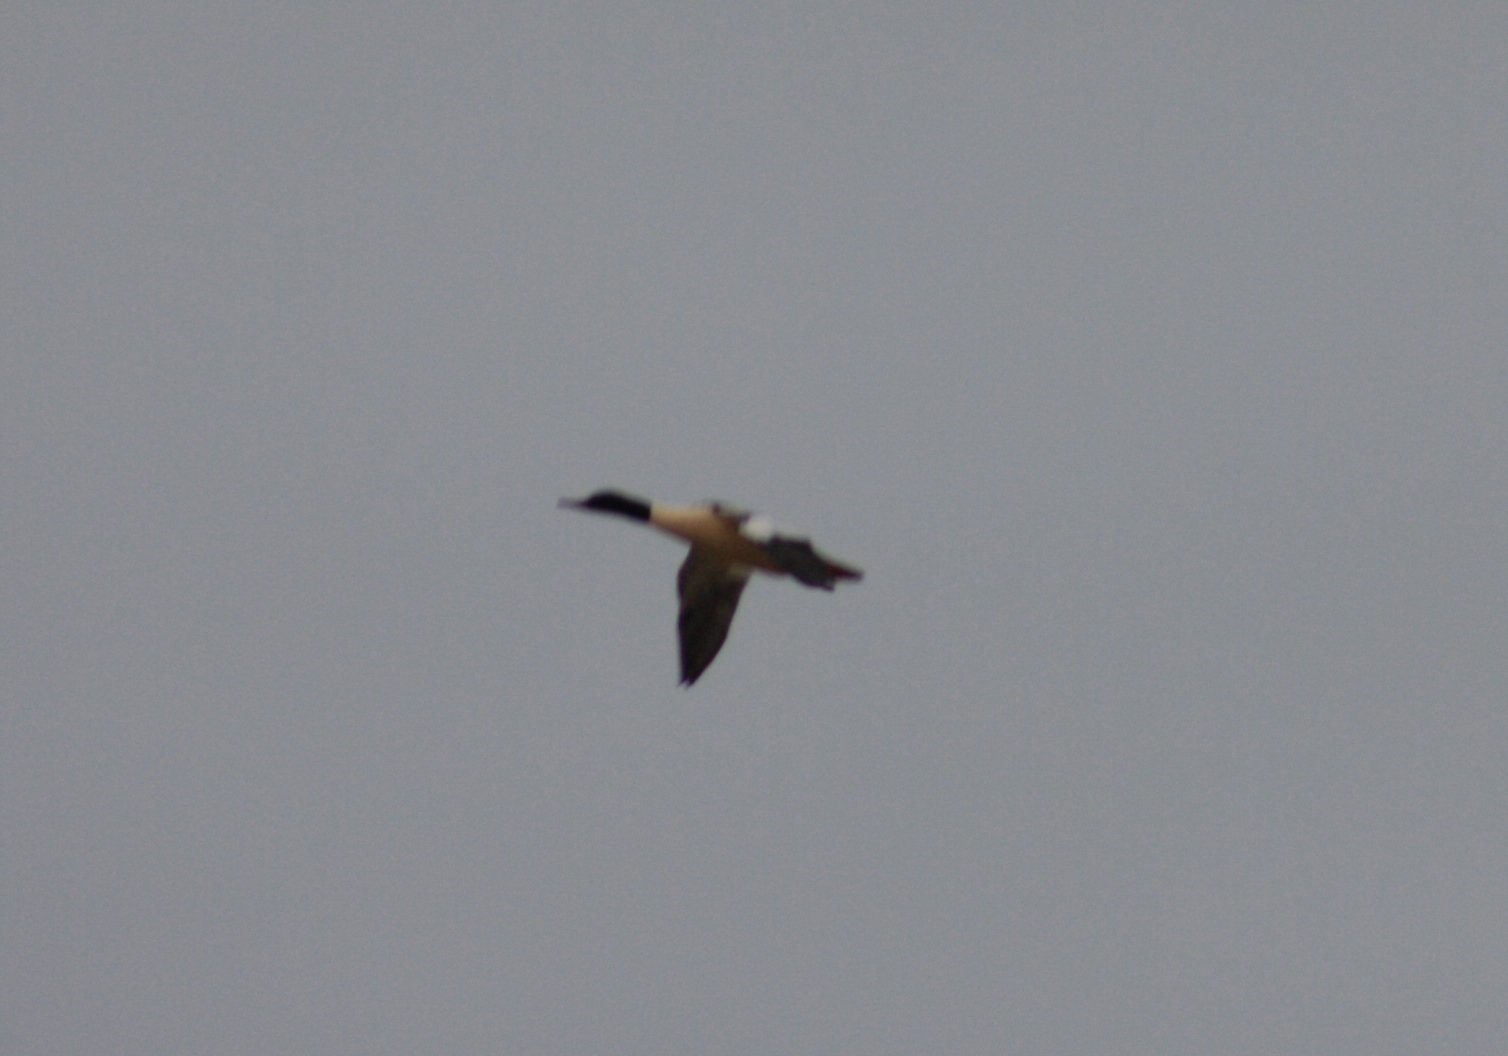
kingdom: Animalia
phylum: Chordata
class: Aves
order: Anseriformes
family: Anatidae
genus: Mergus
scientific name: Mergus merganser
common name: Common merganser
